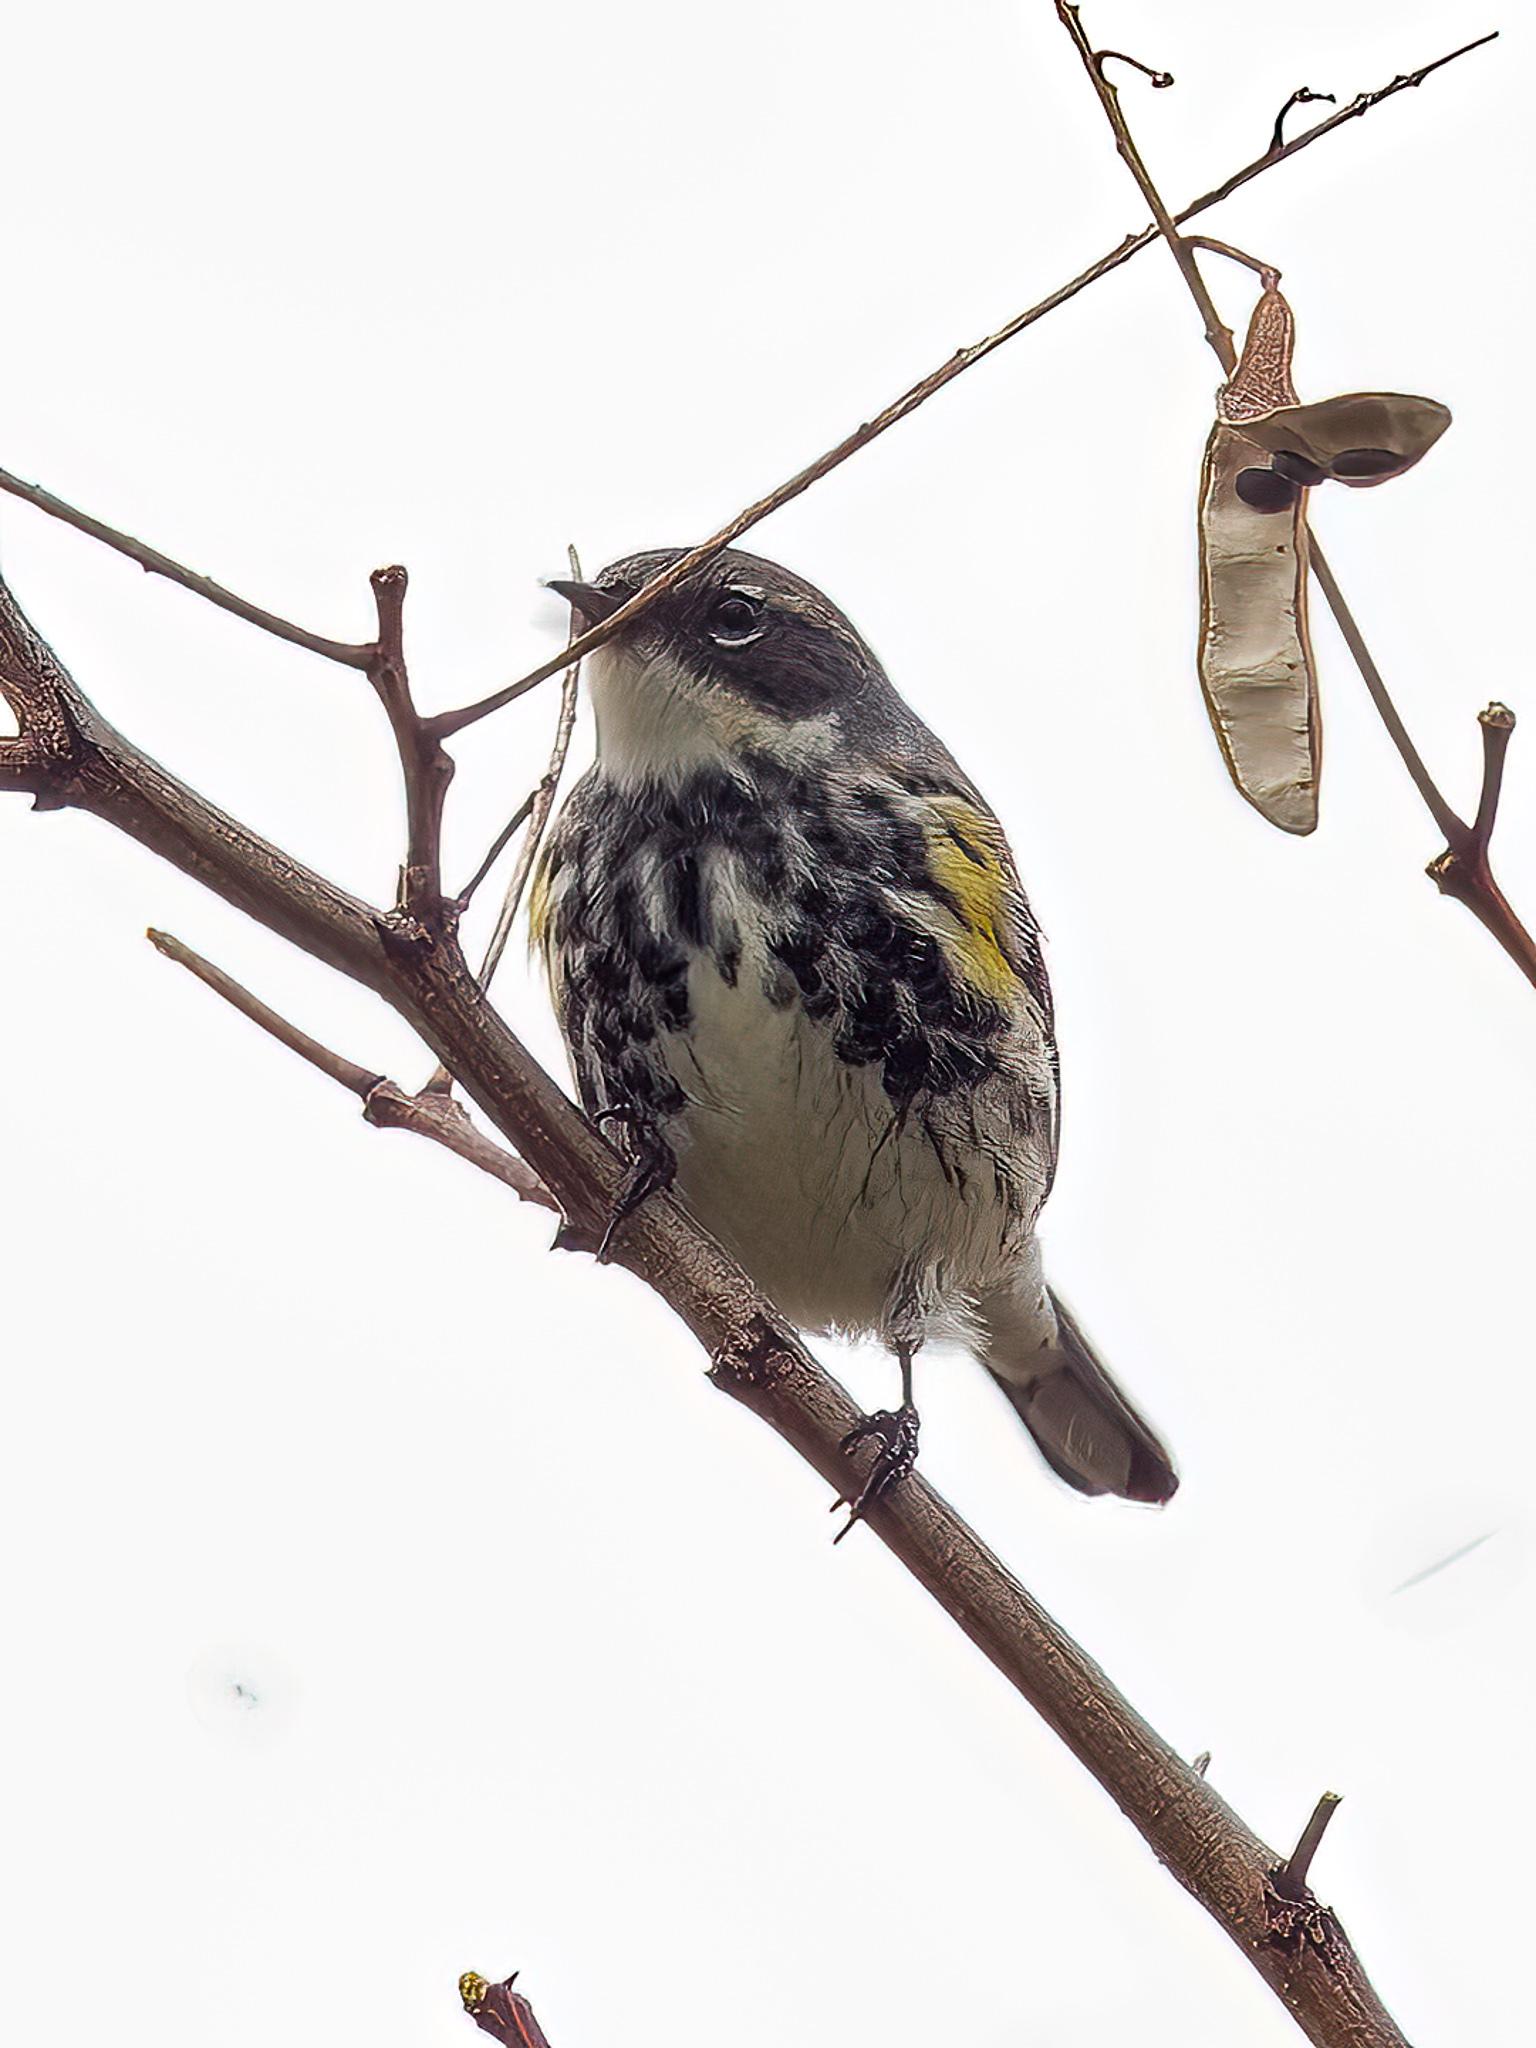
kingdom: Animalia
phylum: Chordata
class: Aves
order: Passeriformes
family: Parulidae
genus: Setophaga
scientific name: Setophaga coronata
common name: Myrtle warbler
